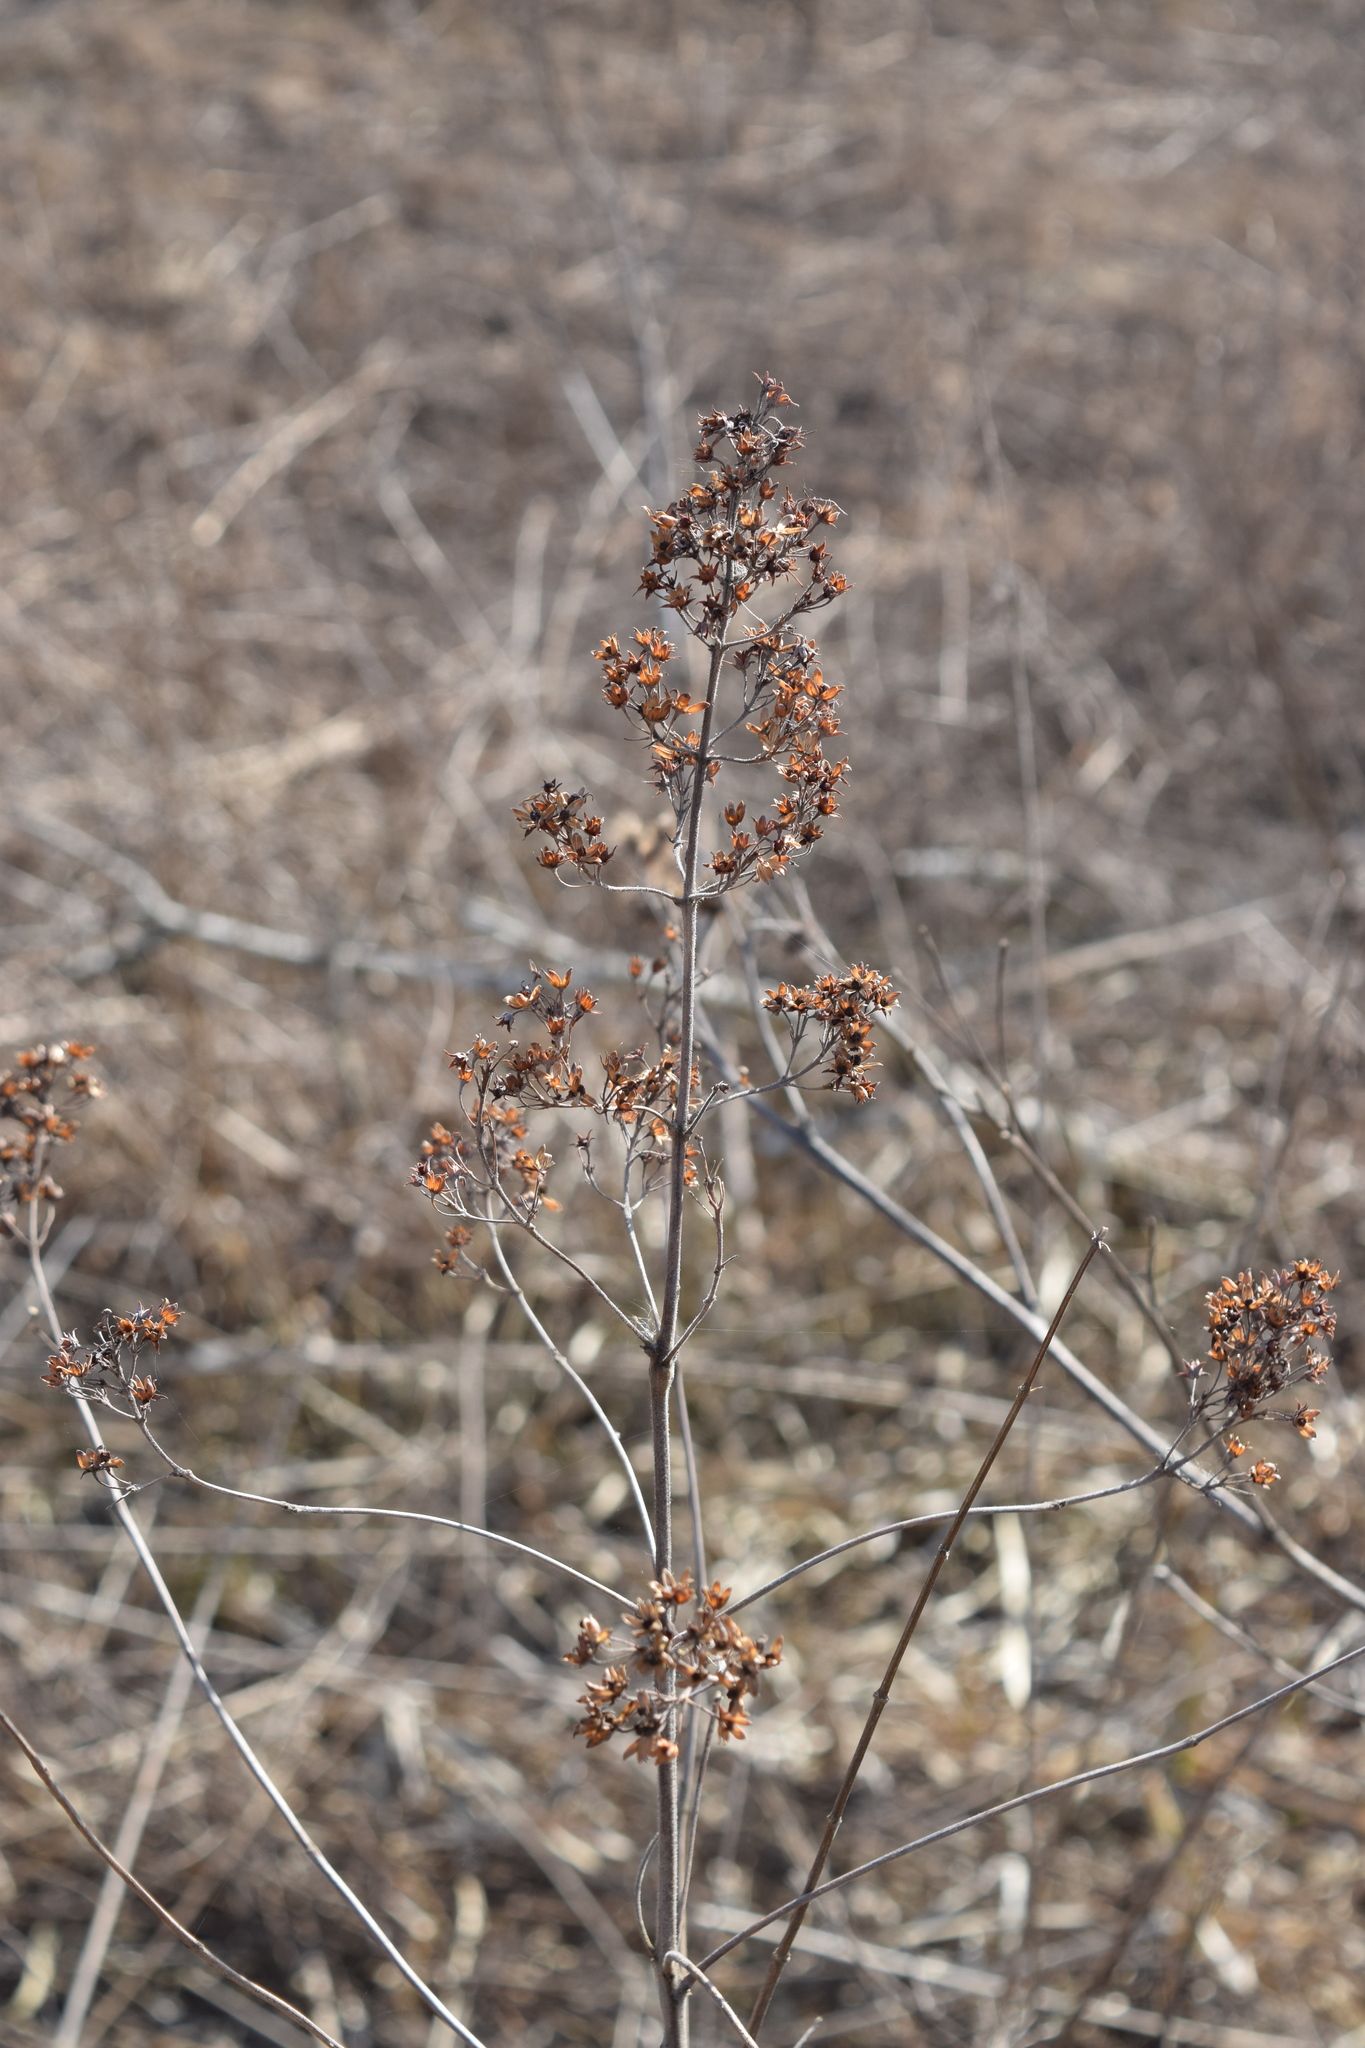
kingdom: Plantae
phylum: Tracheophyta
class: Magnoliopsida
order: Ericales
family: Primulaceae
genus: Lysimachia
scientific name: Lysimachia vulgaris
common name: Yellow loosestrife
